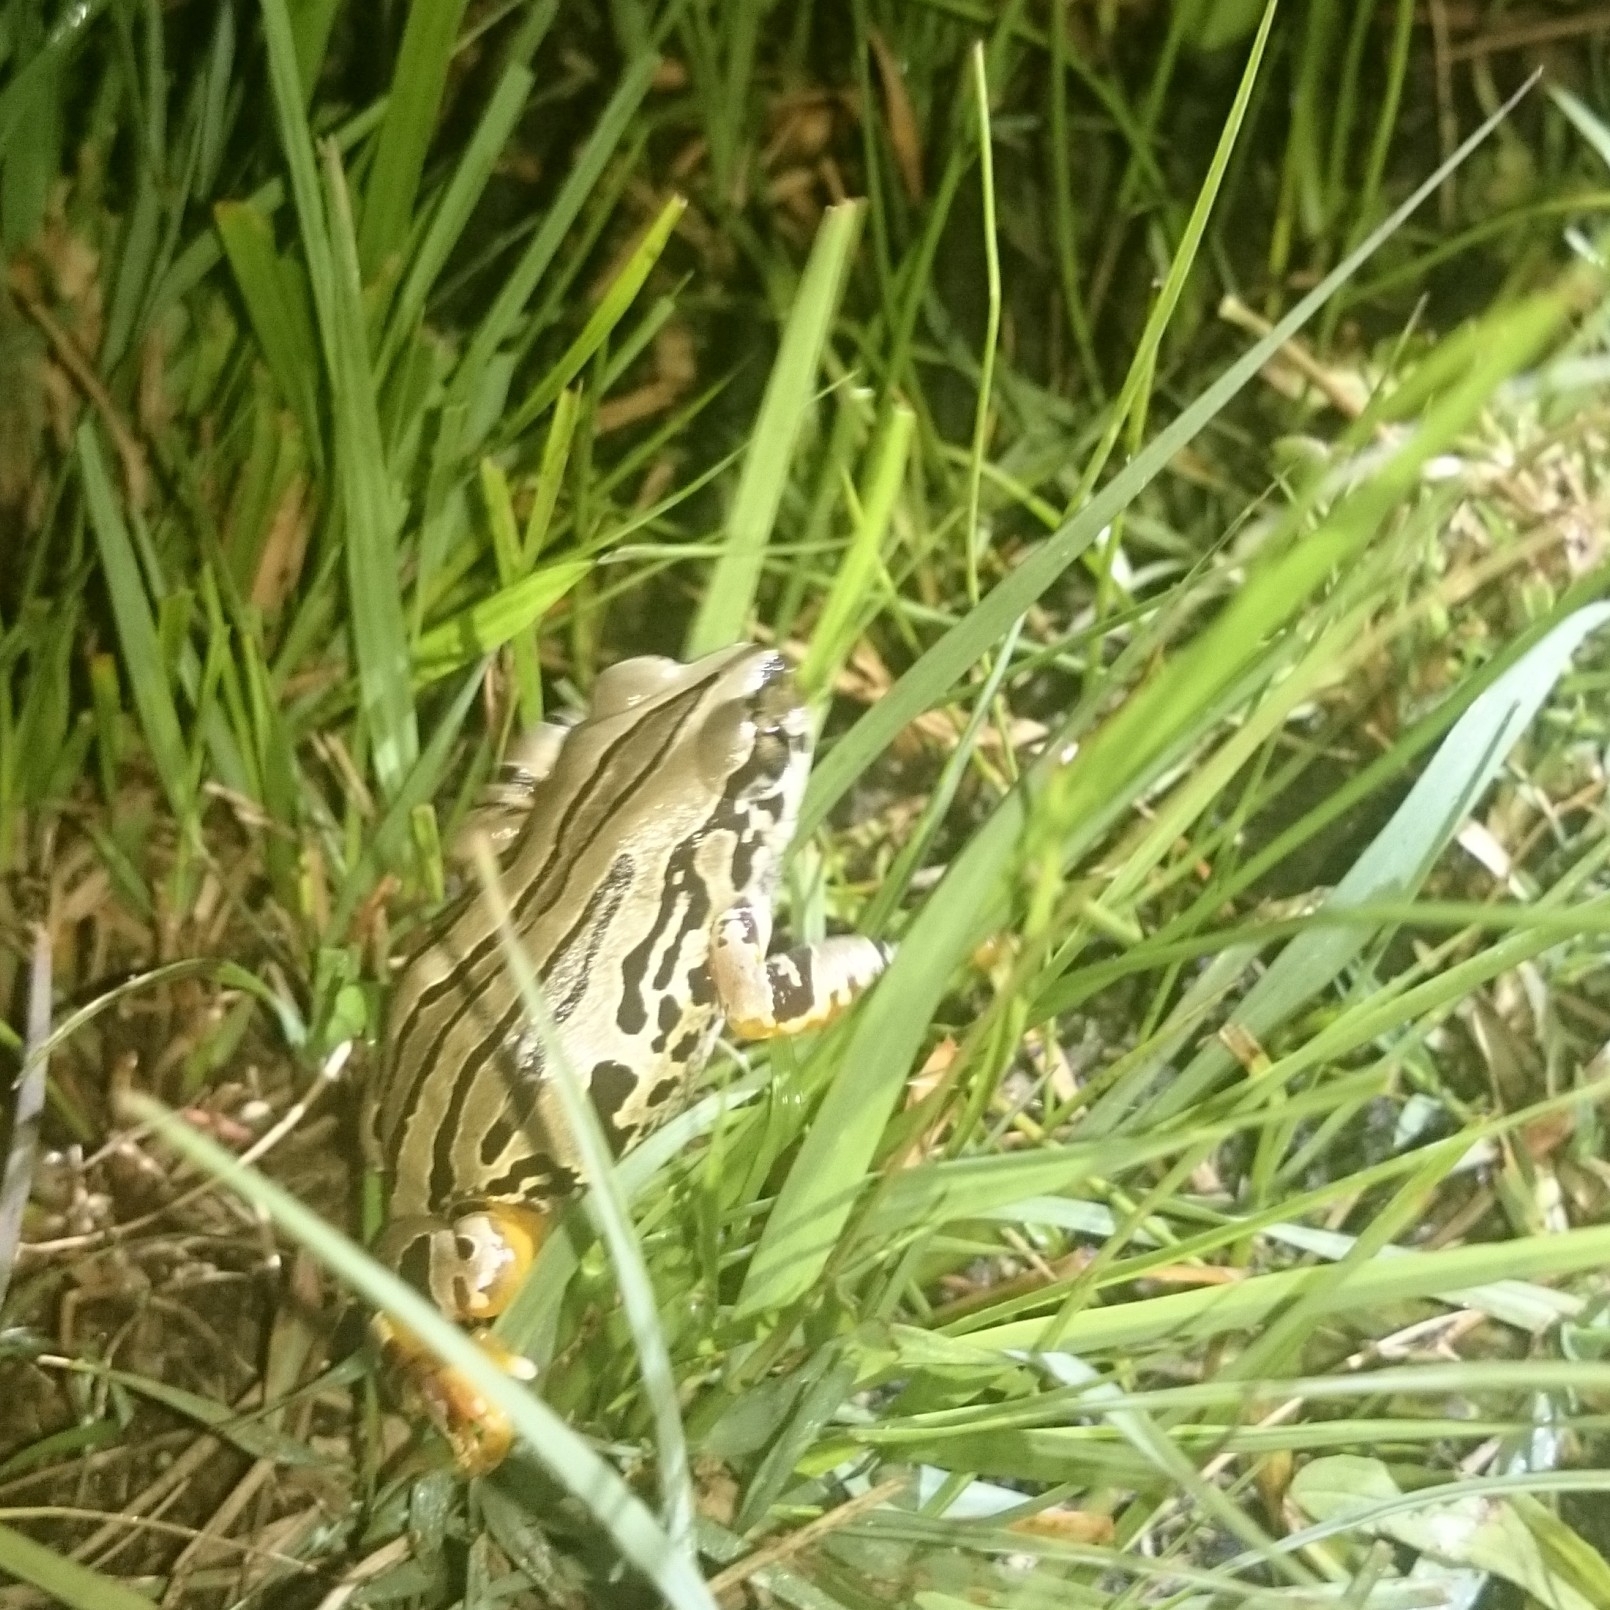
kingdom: Animalia
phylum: Chordata
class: Amphibia
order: Anura
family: Hyperoliidae
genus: Semnodactylus
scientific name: Semnodactylus wealii
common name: Weal's frog
